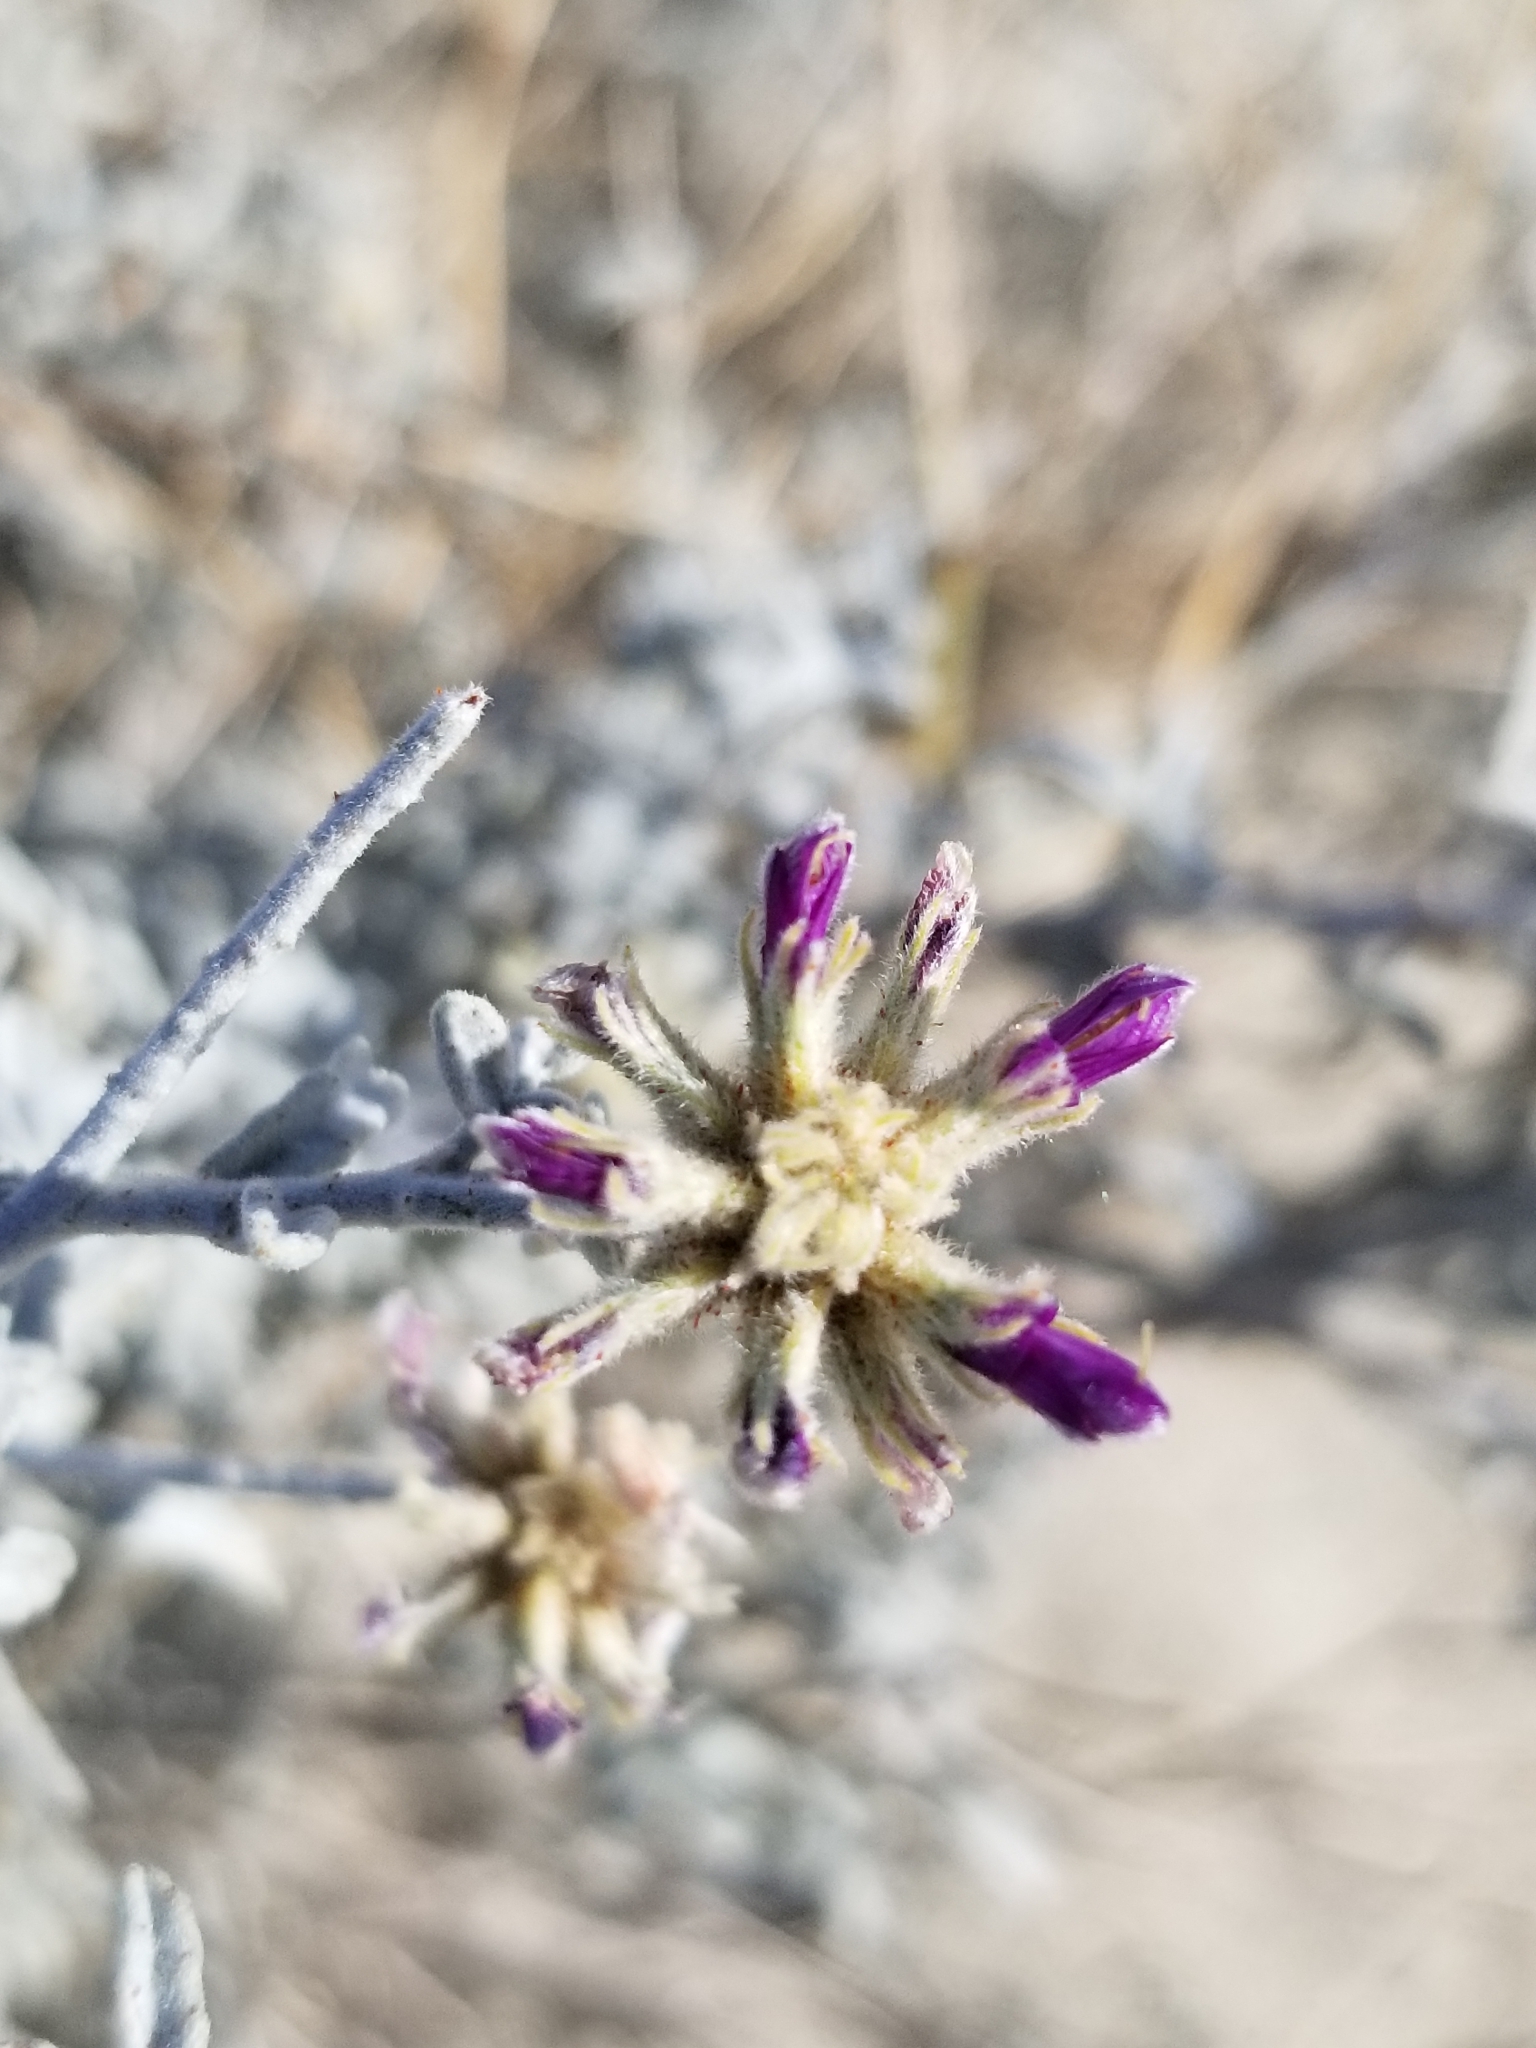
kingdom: Plantae
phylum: Tracheophyta
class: Magnoliopsida
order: Fabales
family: Fabaceae
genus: Psorothamnus
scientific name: Psorothamnus emoryi
